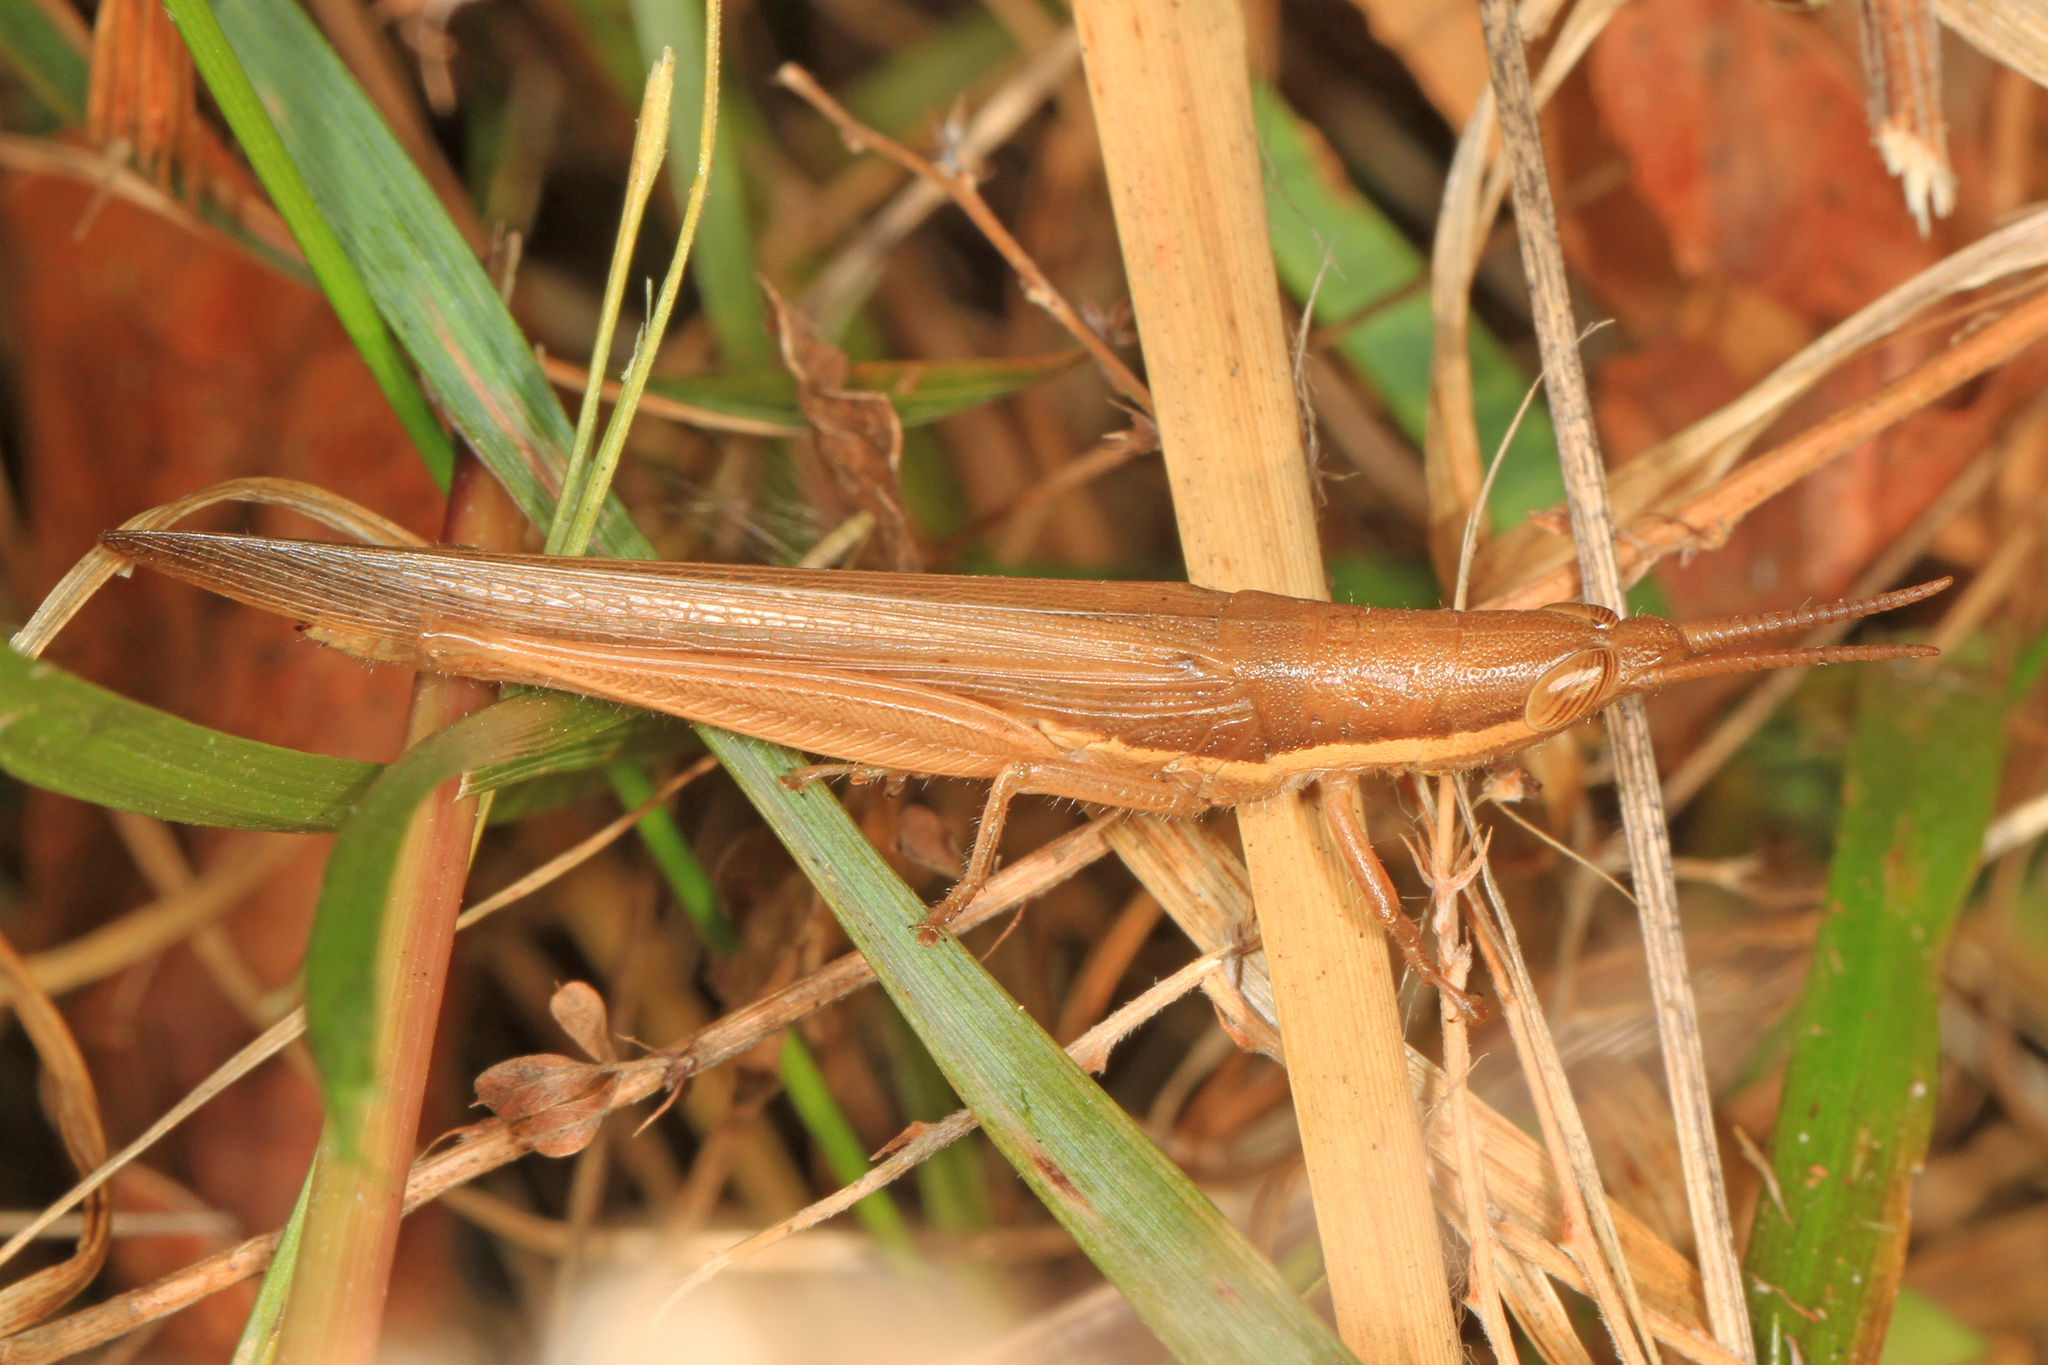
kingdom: Animalia
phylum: Arthropoda
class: Insecta
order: Orthoptera
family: Acrididae
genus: Leptysma
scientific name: Leptysma marginicollis
